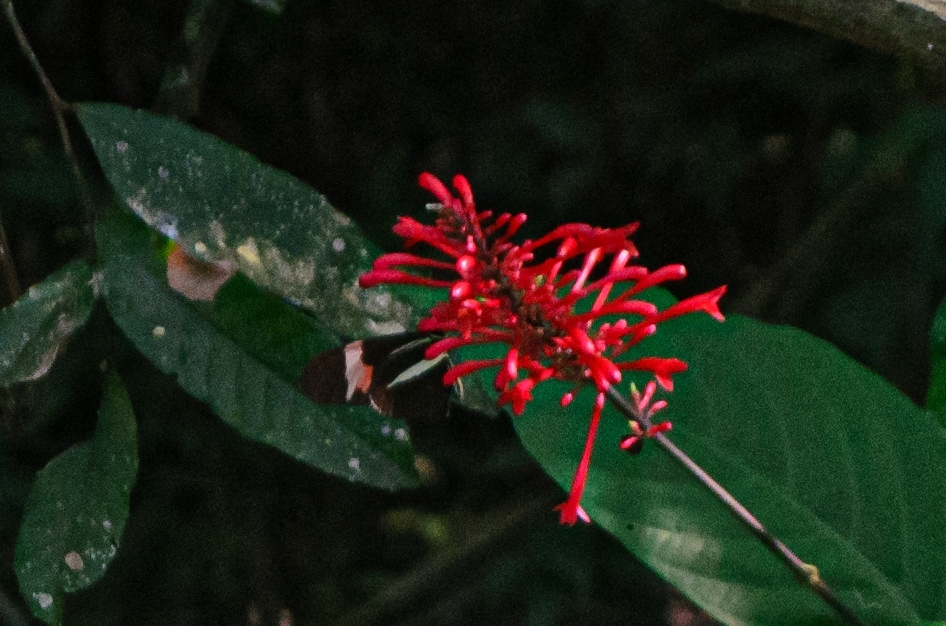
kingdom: Animalia
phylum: Arthropoda
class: Insecta
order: Lepidoptera
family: Nymphalidae
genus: Heliconius
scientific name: Heliconius erato
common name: Common patch longwing
